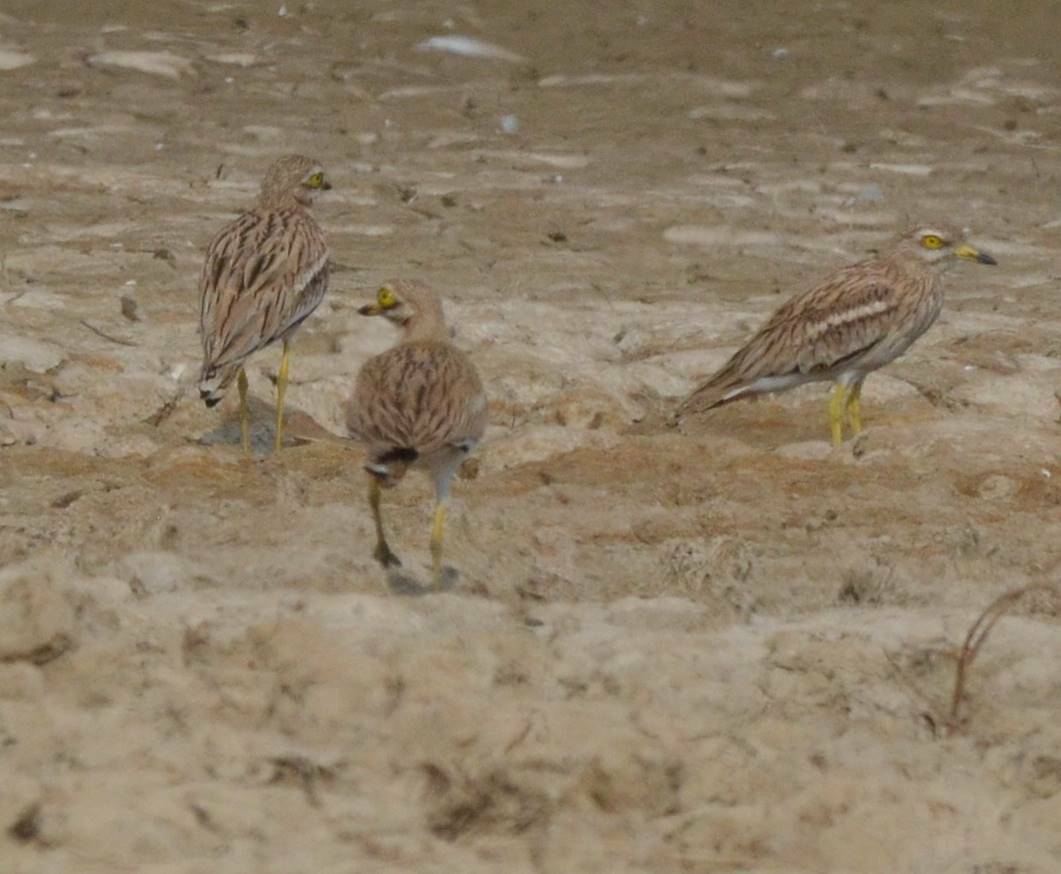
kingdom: Animalia
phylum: Chordata
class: Aves
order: Charadriiformes
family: Burhinidae
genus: Burhinus
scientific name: Burhinus oedicnemus
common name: Eurasian stone-curlew
